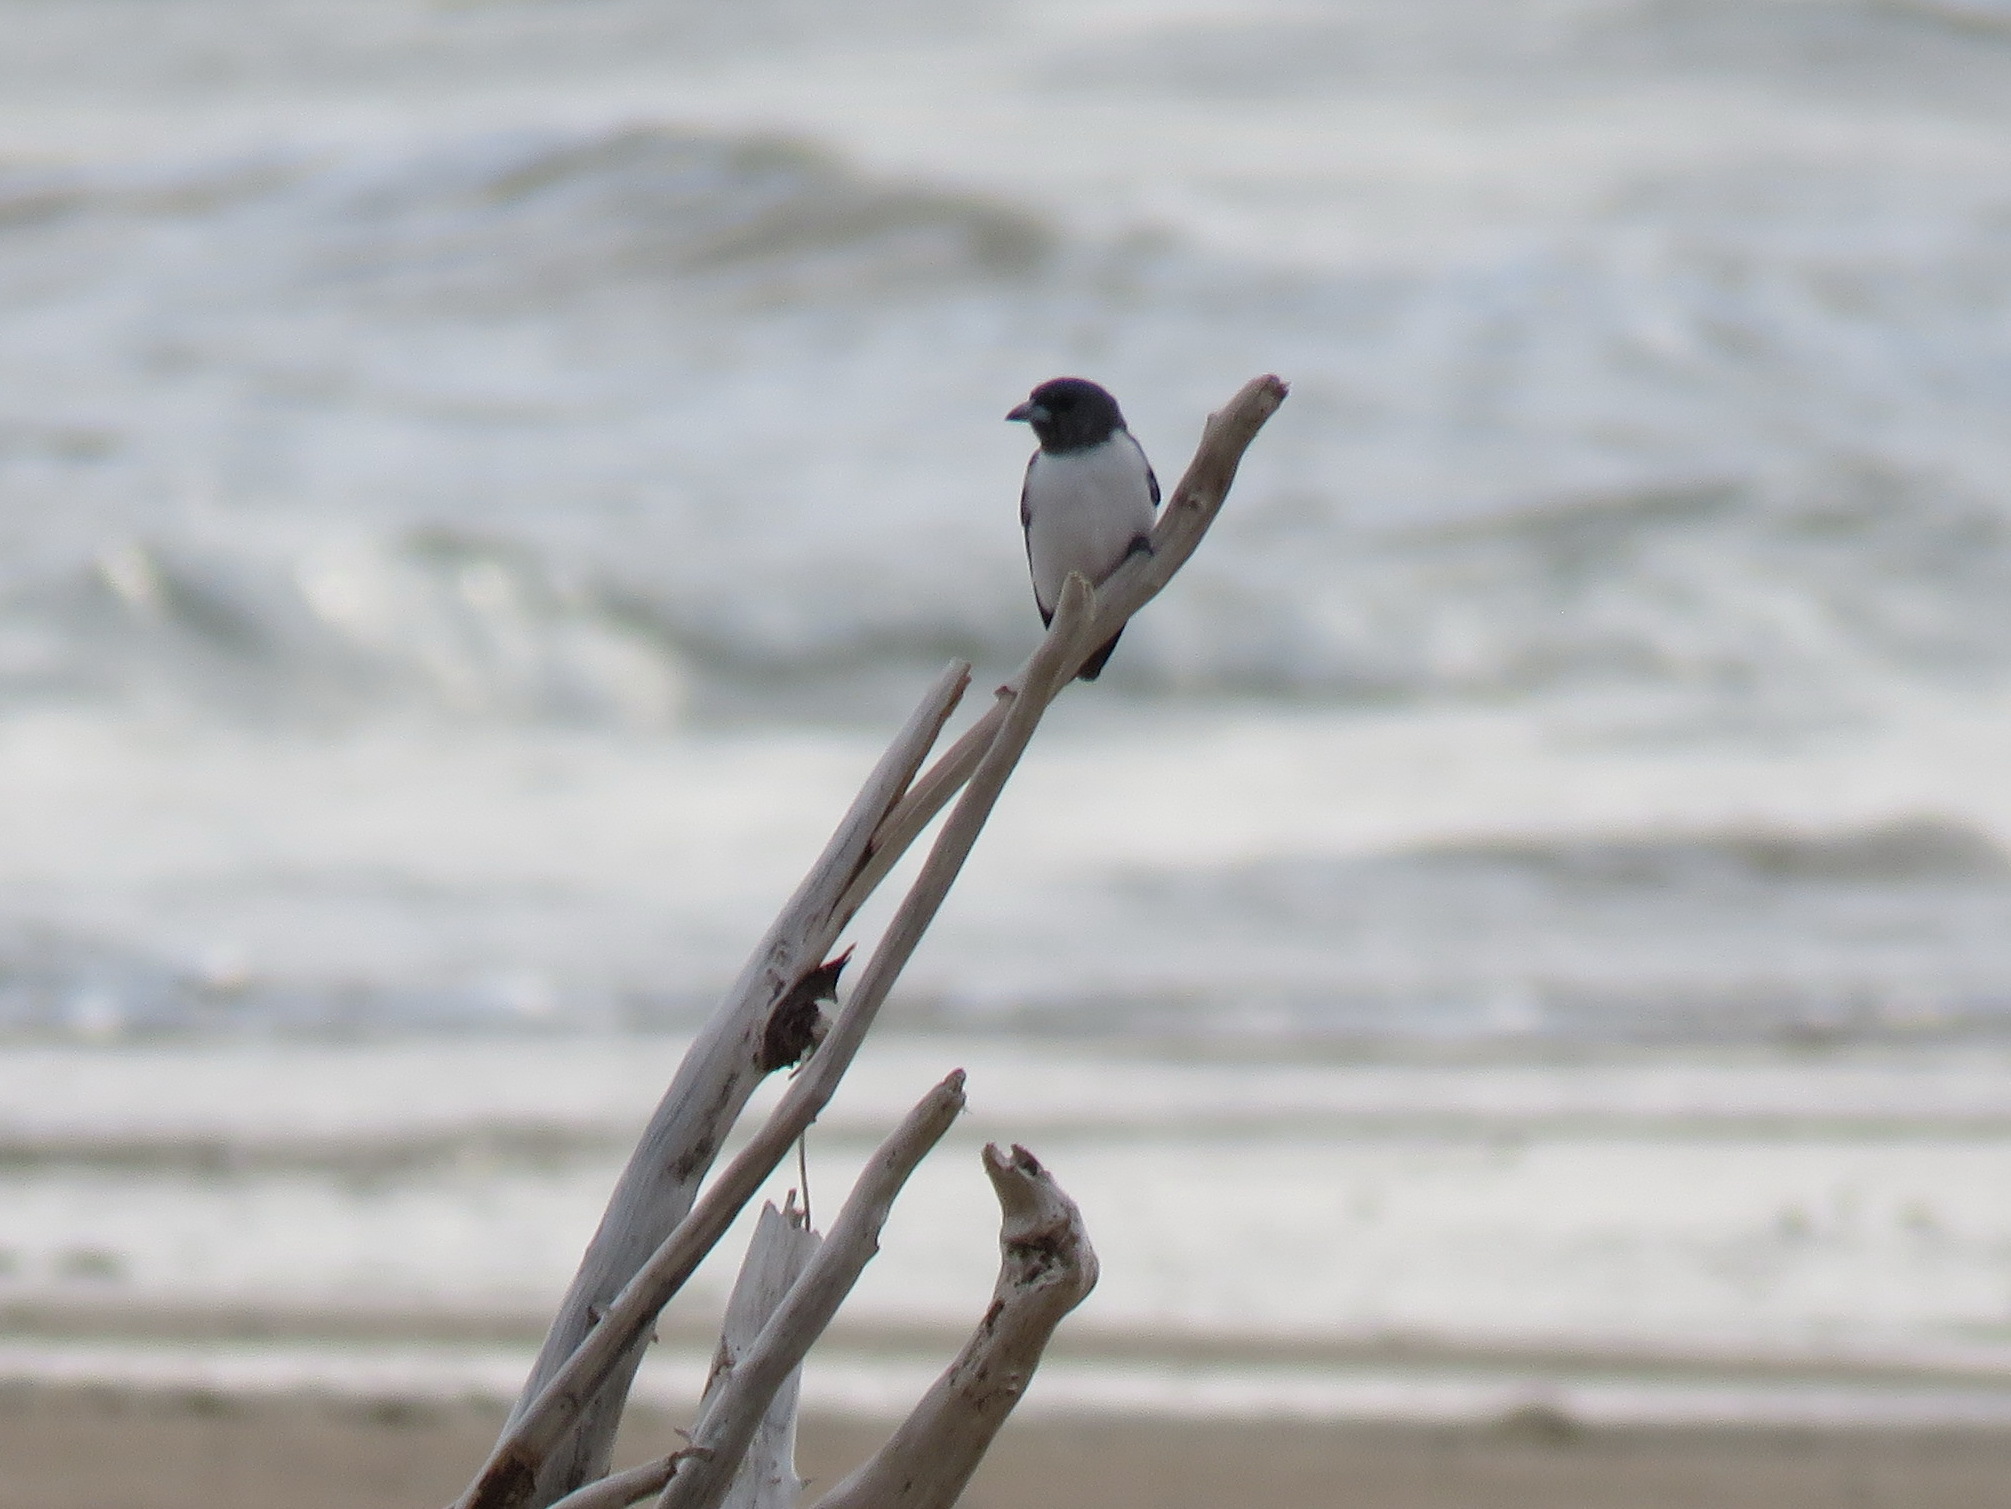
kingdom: Animalia
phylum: Chordata
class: Aves
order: Passeriformes
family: Artamidae
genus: Artamus
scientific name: Artamus leucoryn
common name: White-breasted woodswallow
